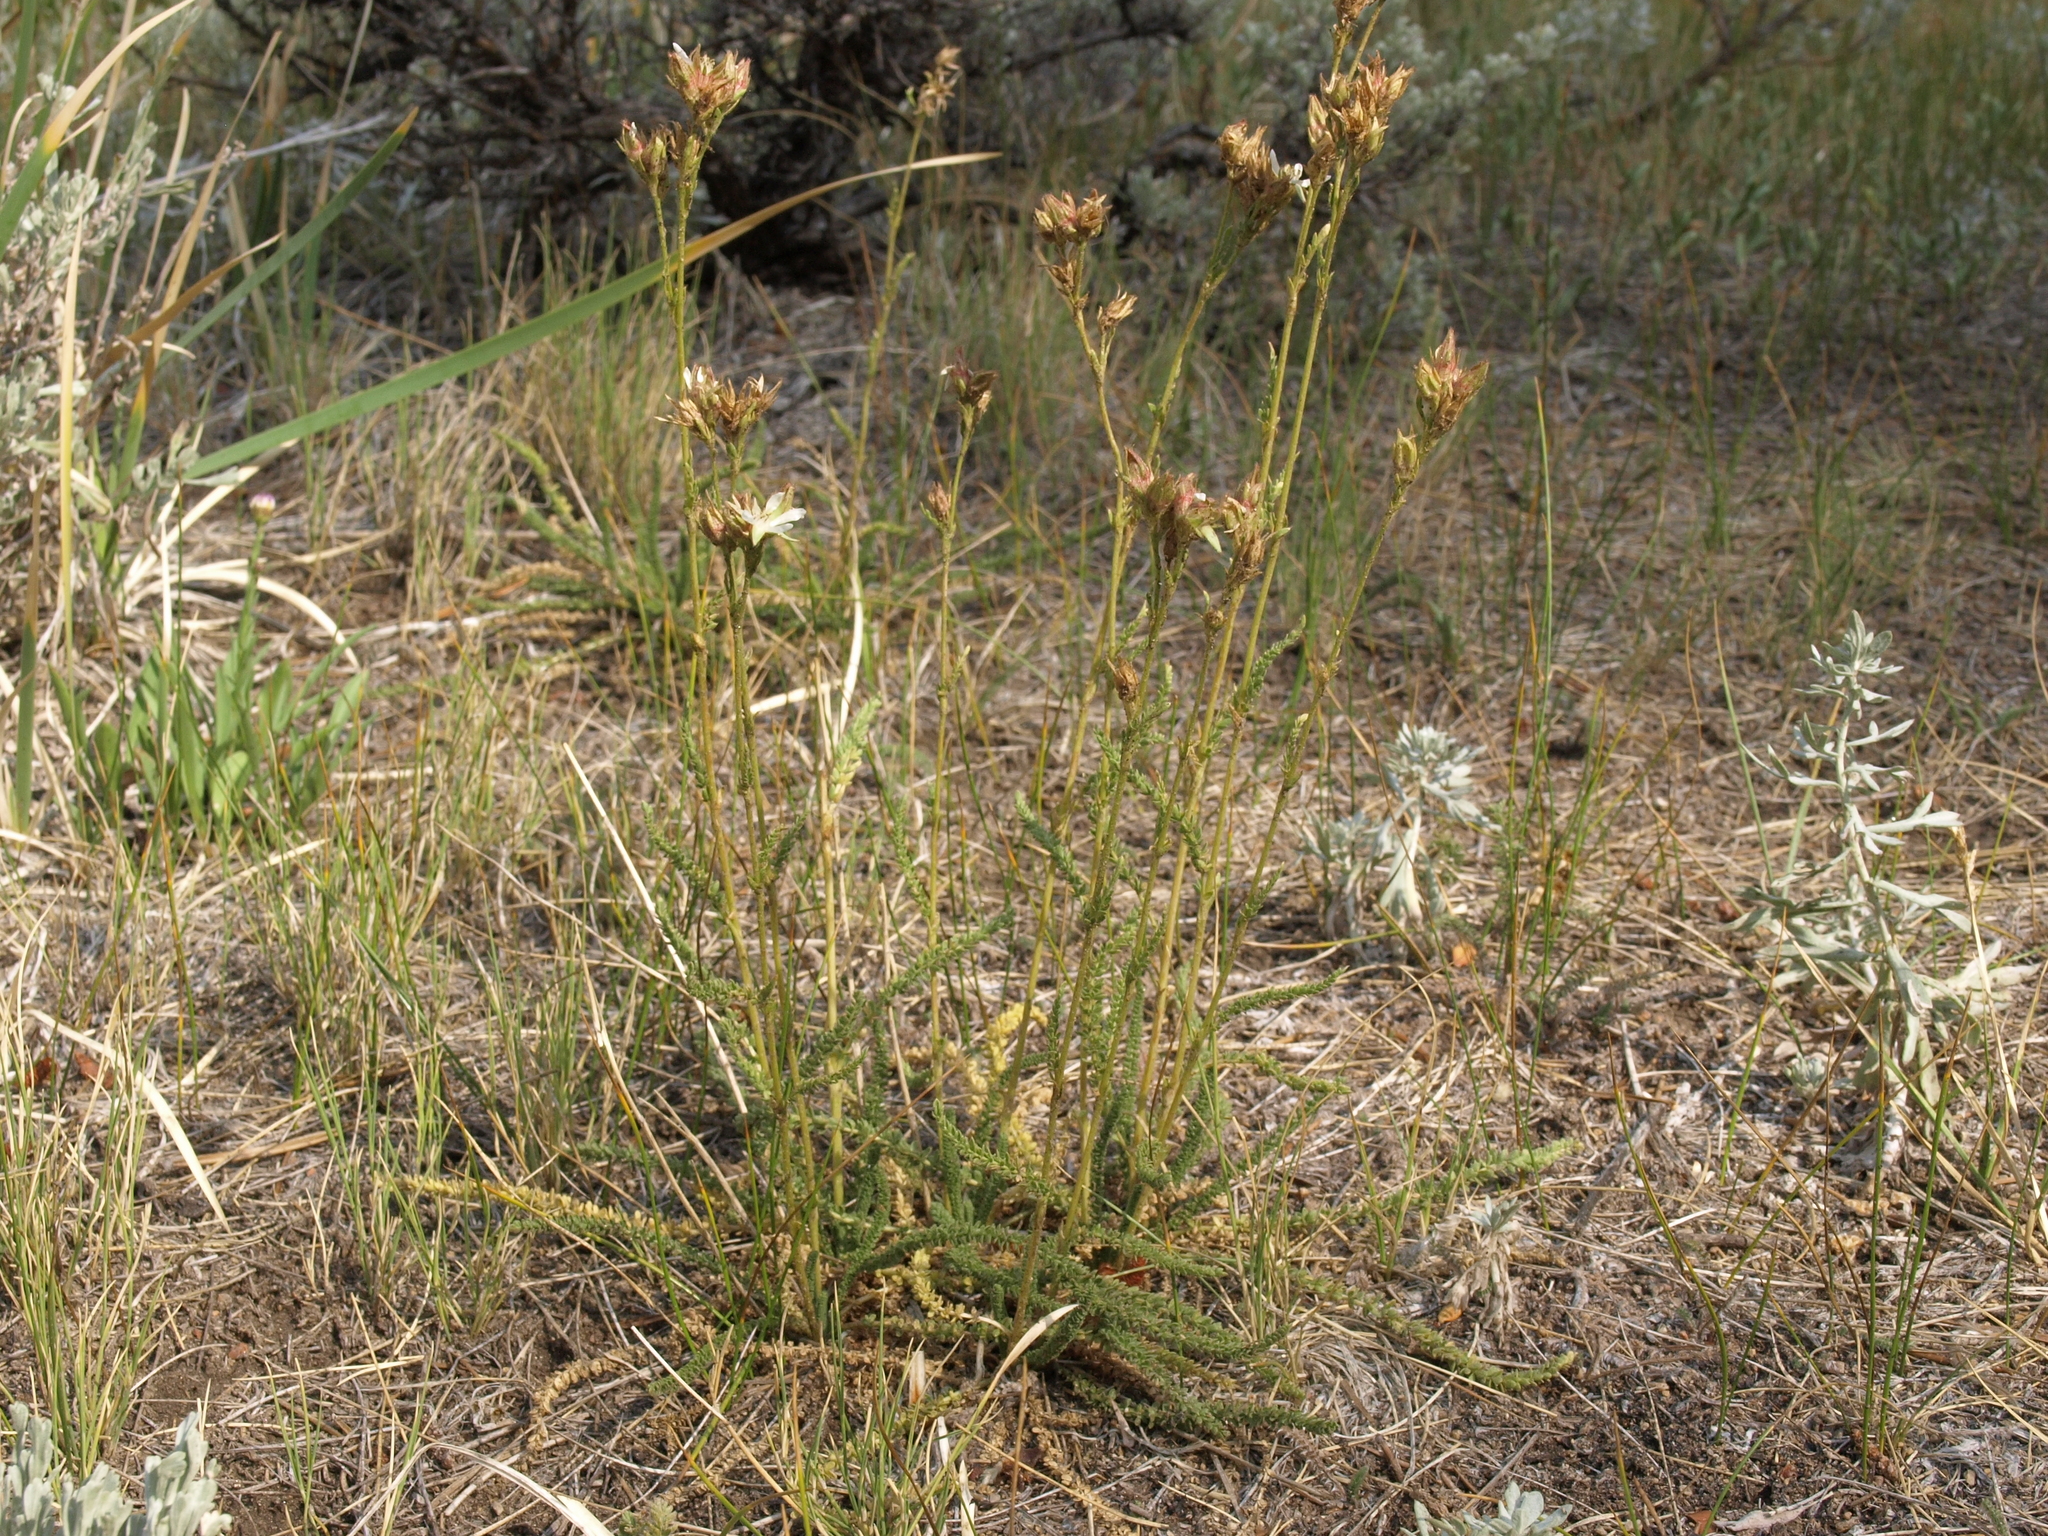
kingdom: Plantae
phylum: Tracheophyta
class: Magnoliopsida
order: Rosales
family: Rosaceae
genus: Potentilla
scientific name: Potentilla congdonis
